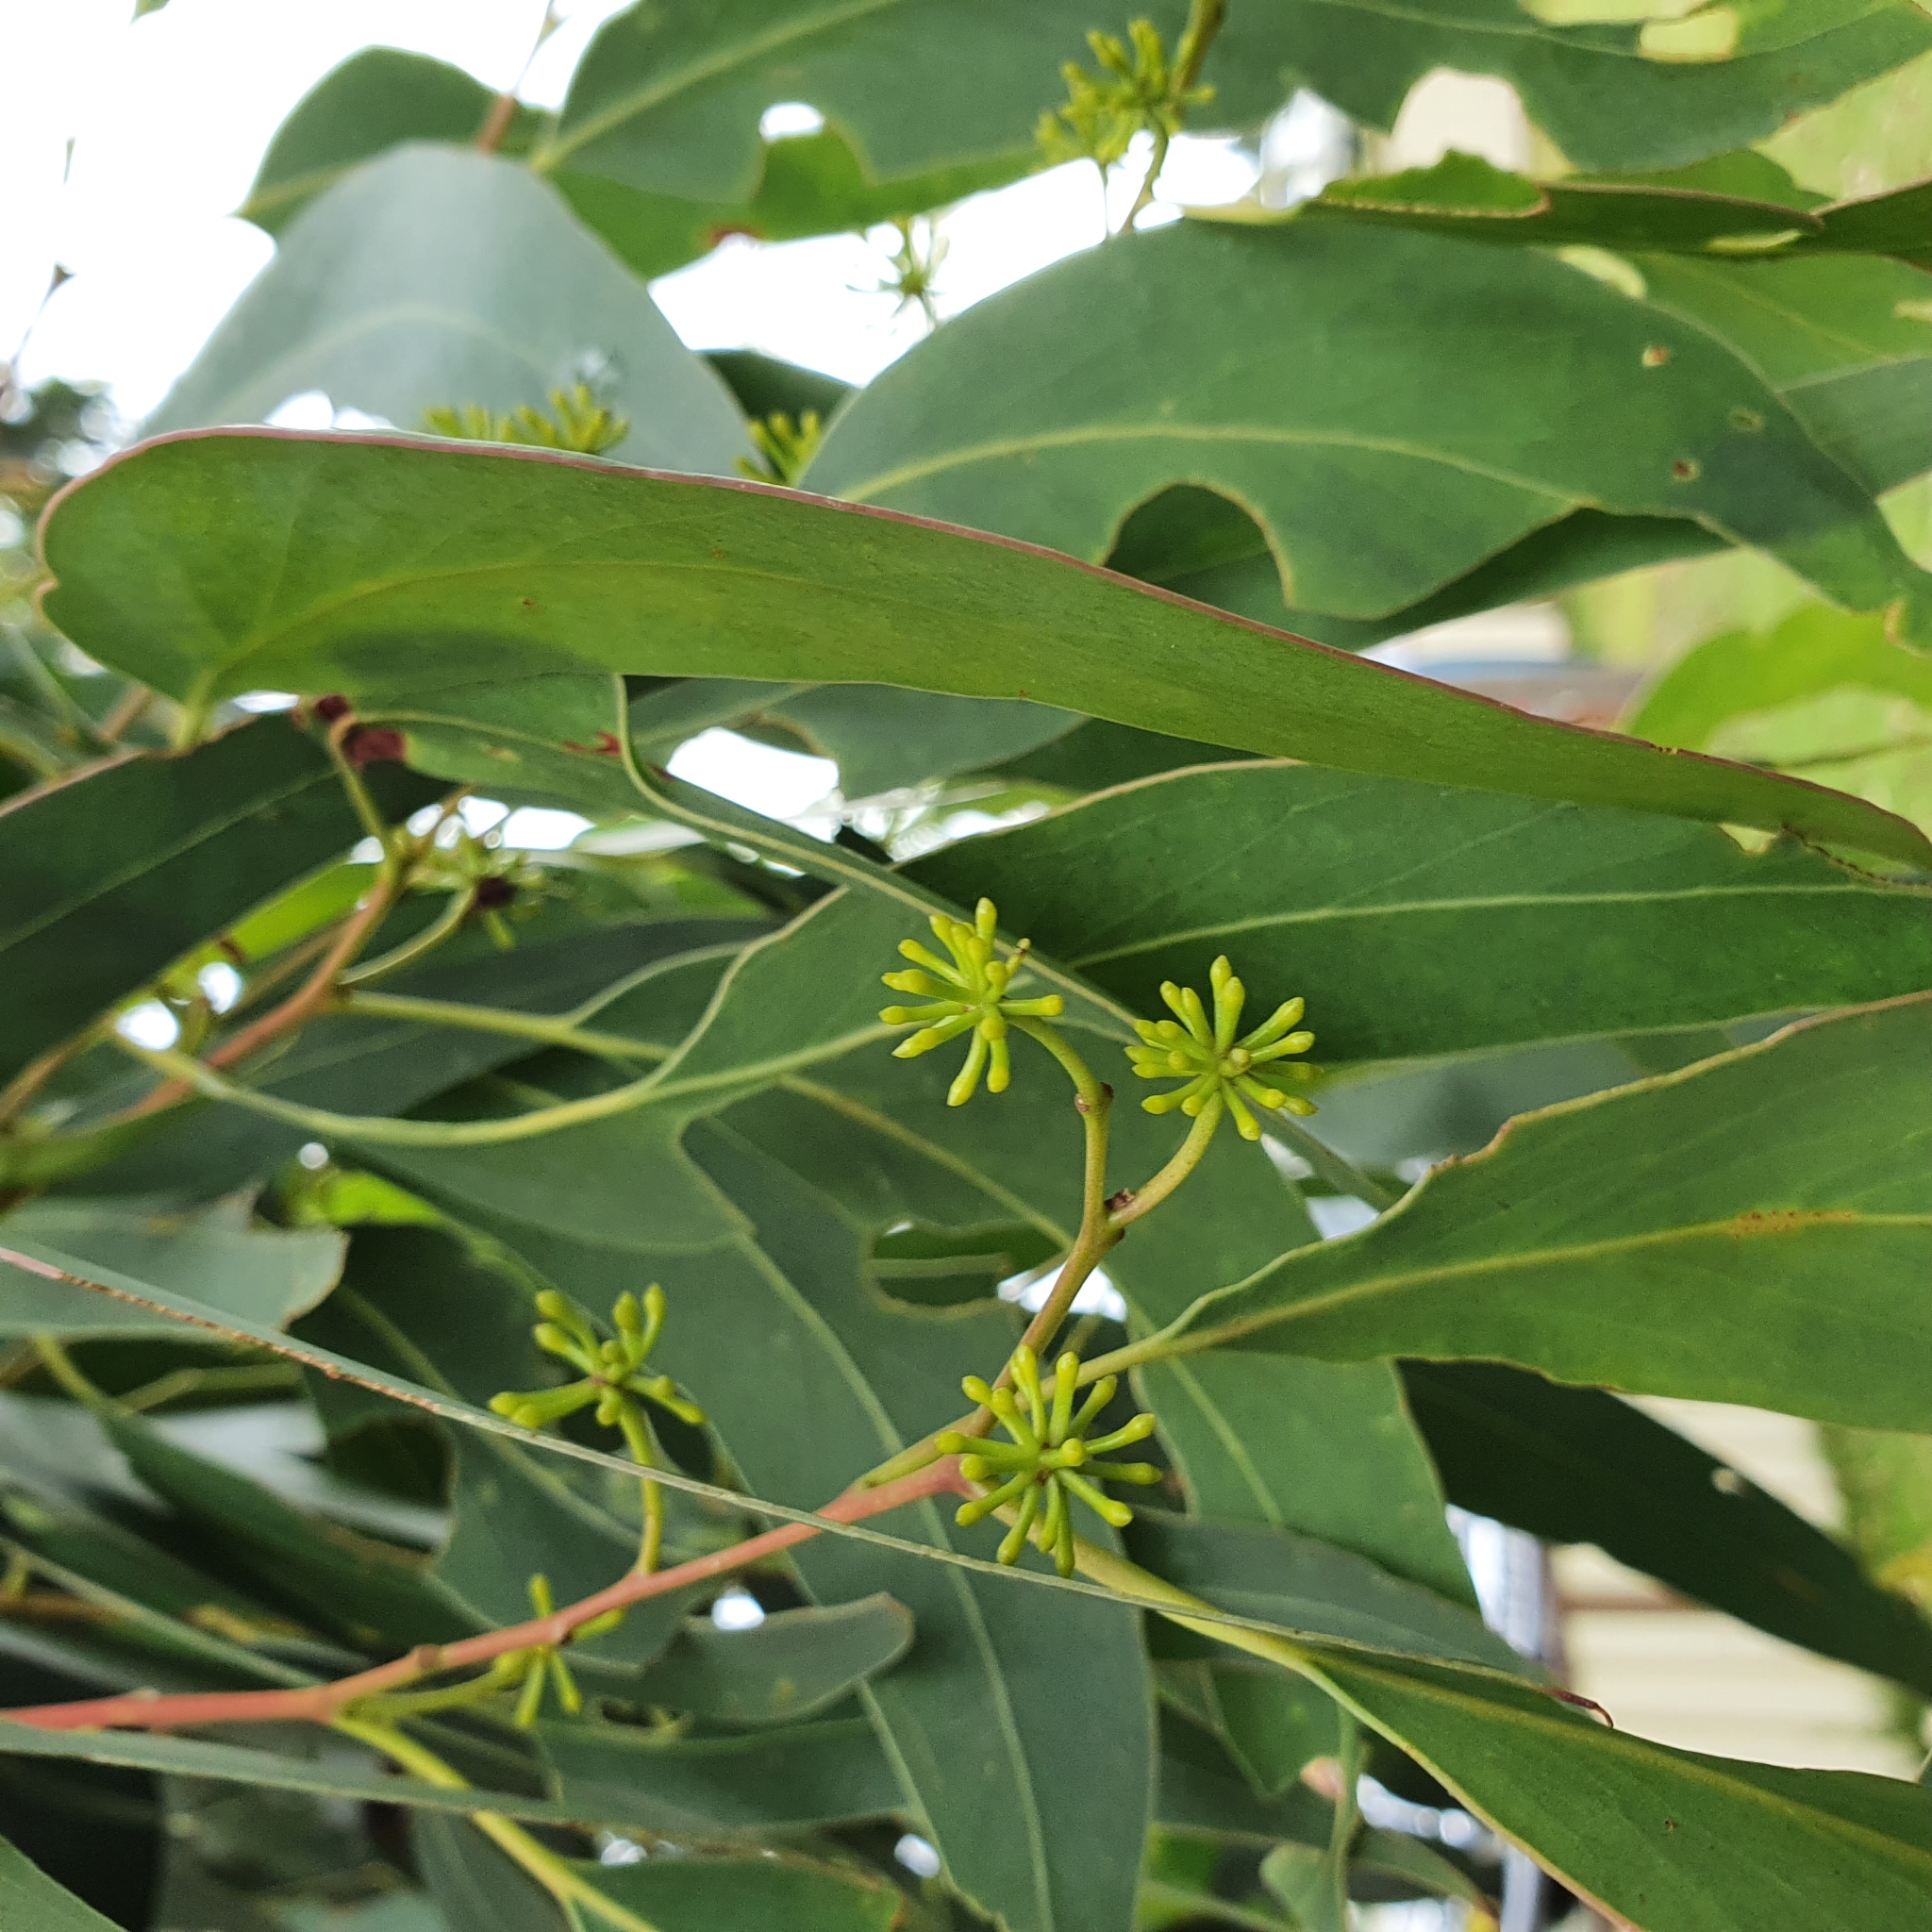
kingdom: Plantae
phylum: Tracheophyta
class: Magnoliopsida
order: Myrtales
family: Myrtaceae
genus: Eucalyptus
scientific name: Eucalyptus racemosa
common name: Scribbly gum
